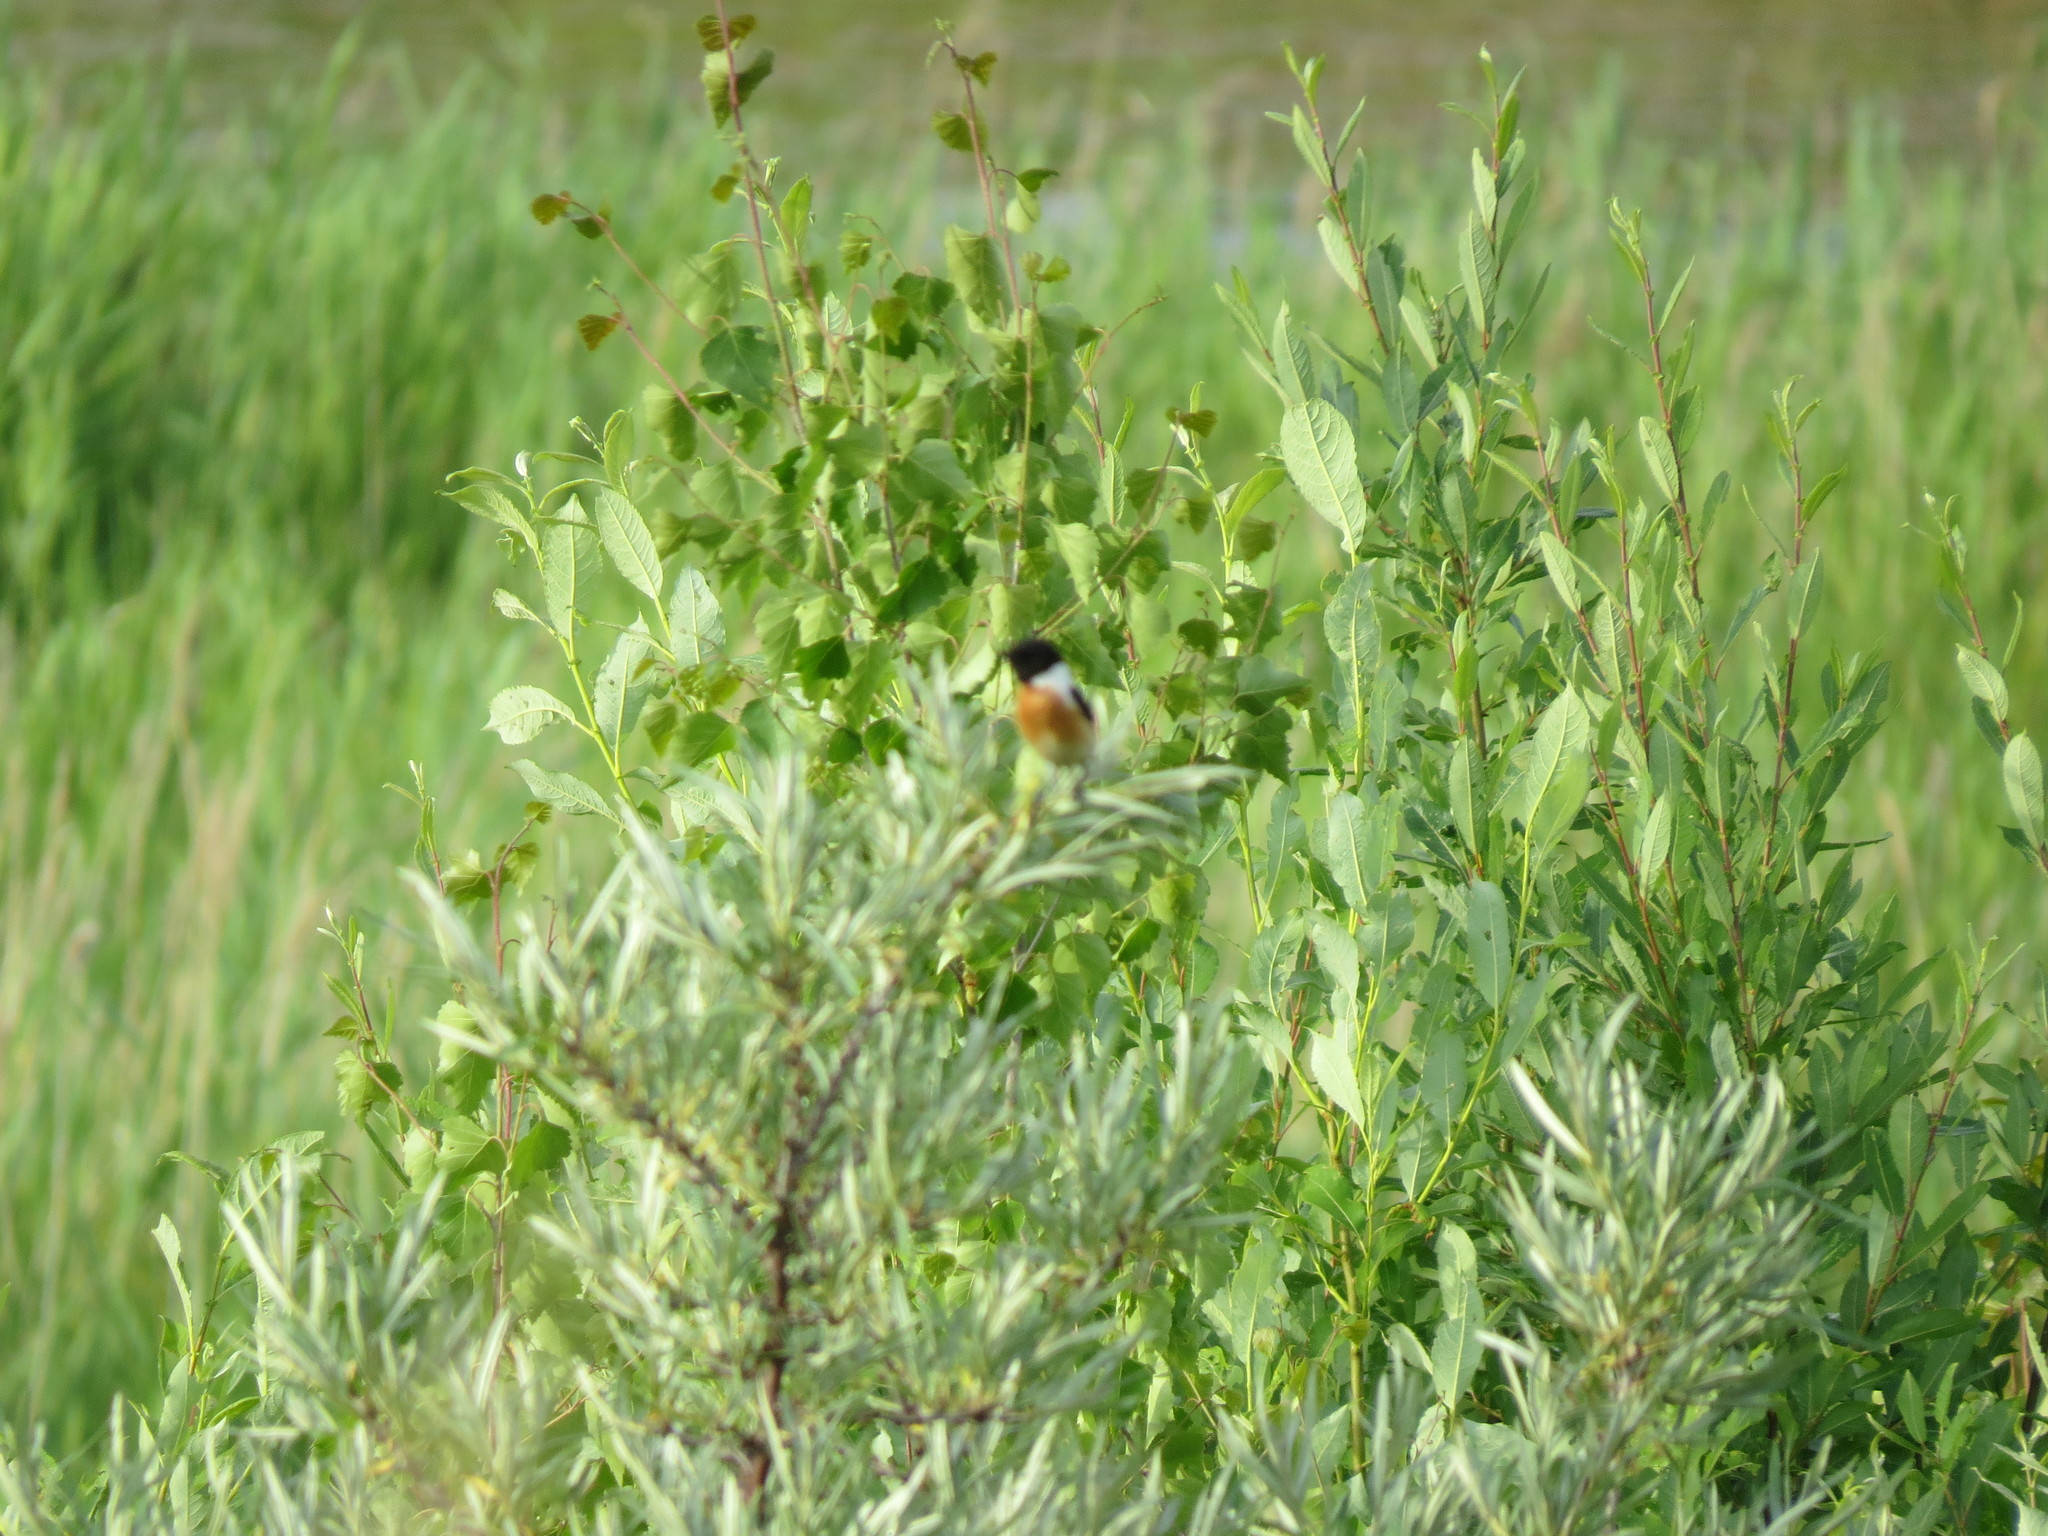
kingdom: Animalia
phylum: Chordata
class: Aves
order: Passeriformes
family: Muscicapidae
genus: Saxicola
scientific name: Saxicola maurus
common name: Siberian stonechat
